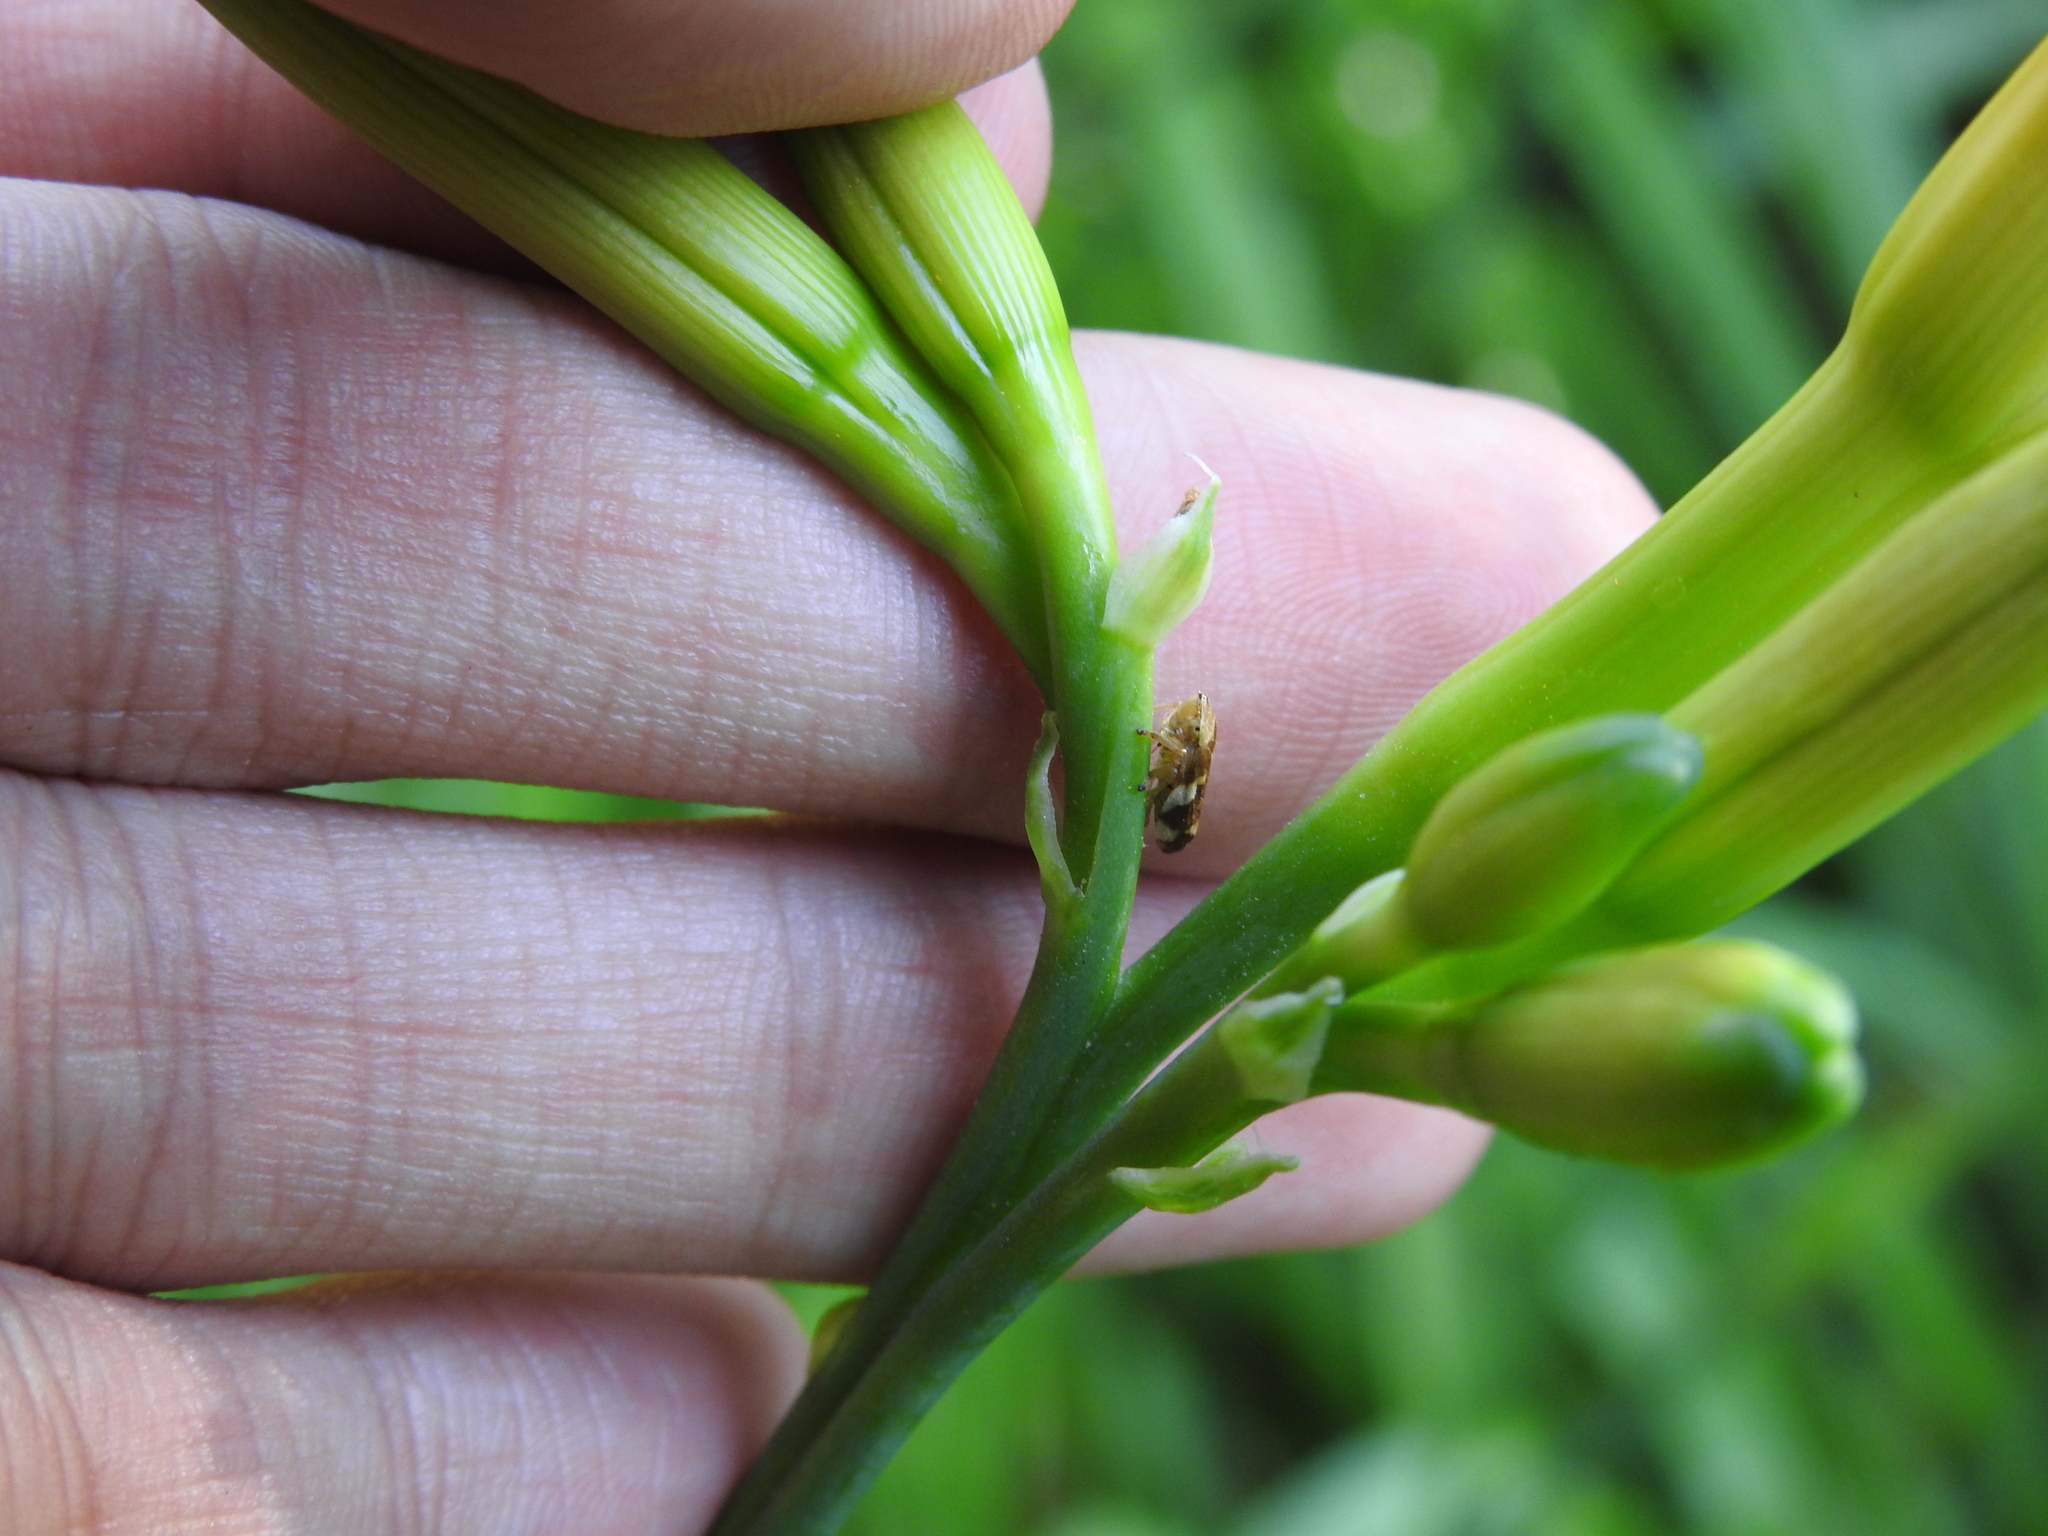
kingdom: Animalia
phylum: Arthropoda
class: Insecta
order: Hemiptera
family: Aphrophoridae
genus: Philaenus
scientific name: Philaenus spumarius
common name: Meadow spittlebug
